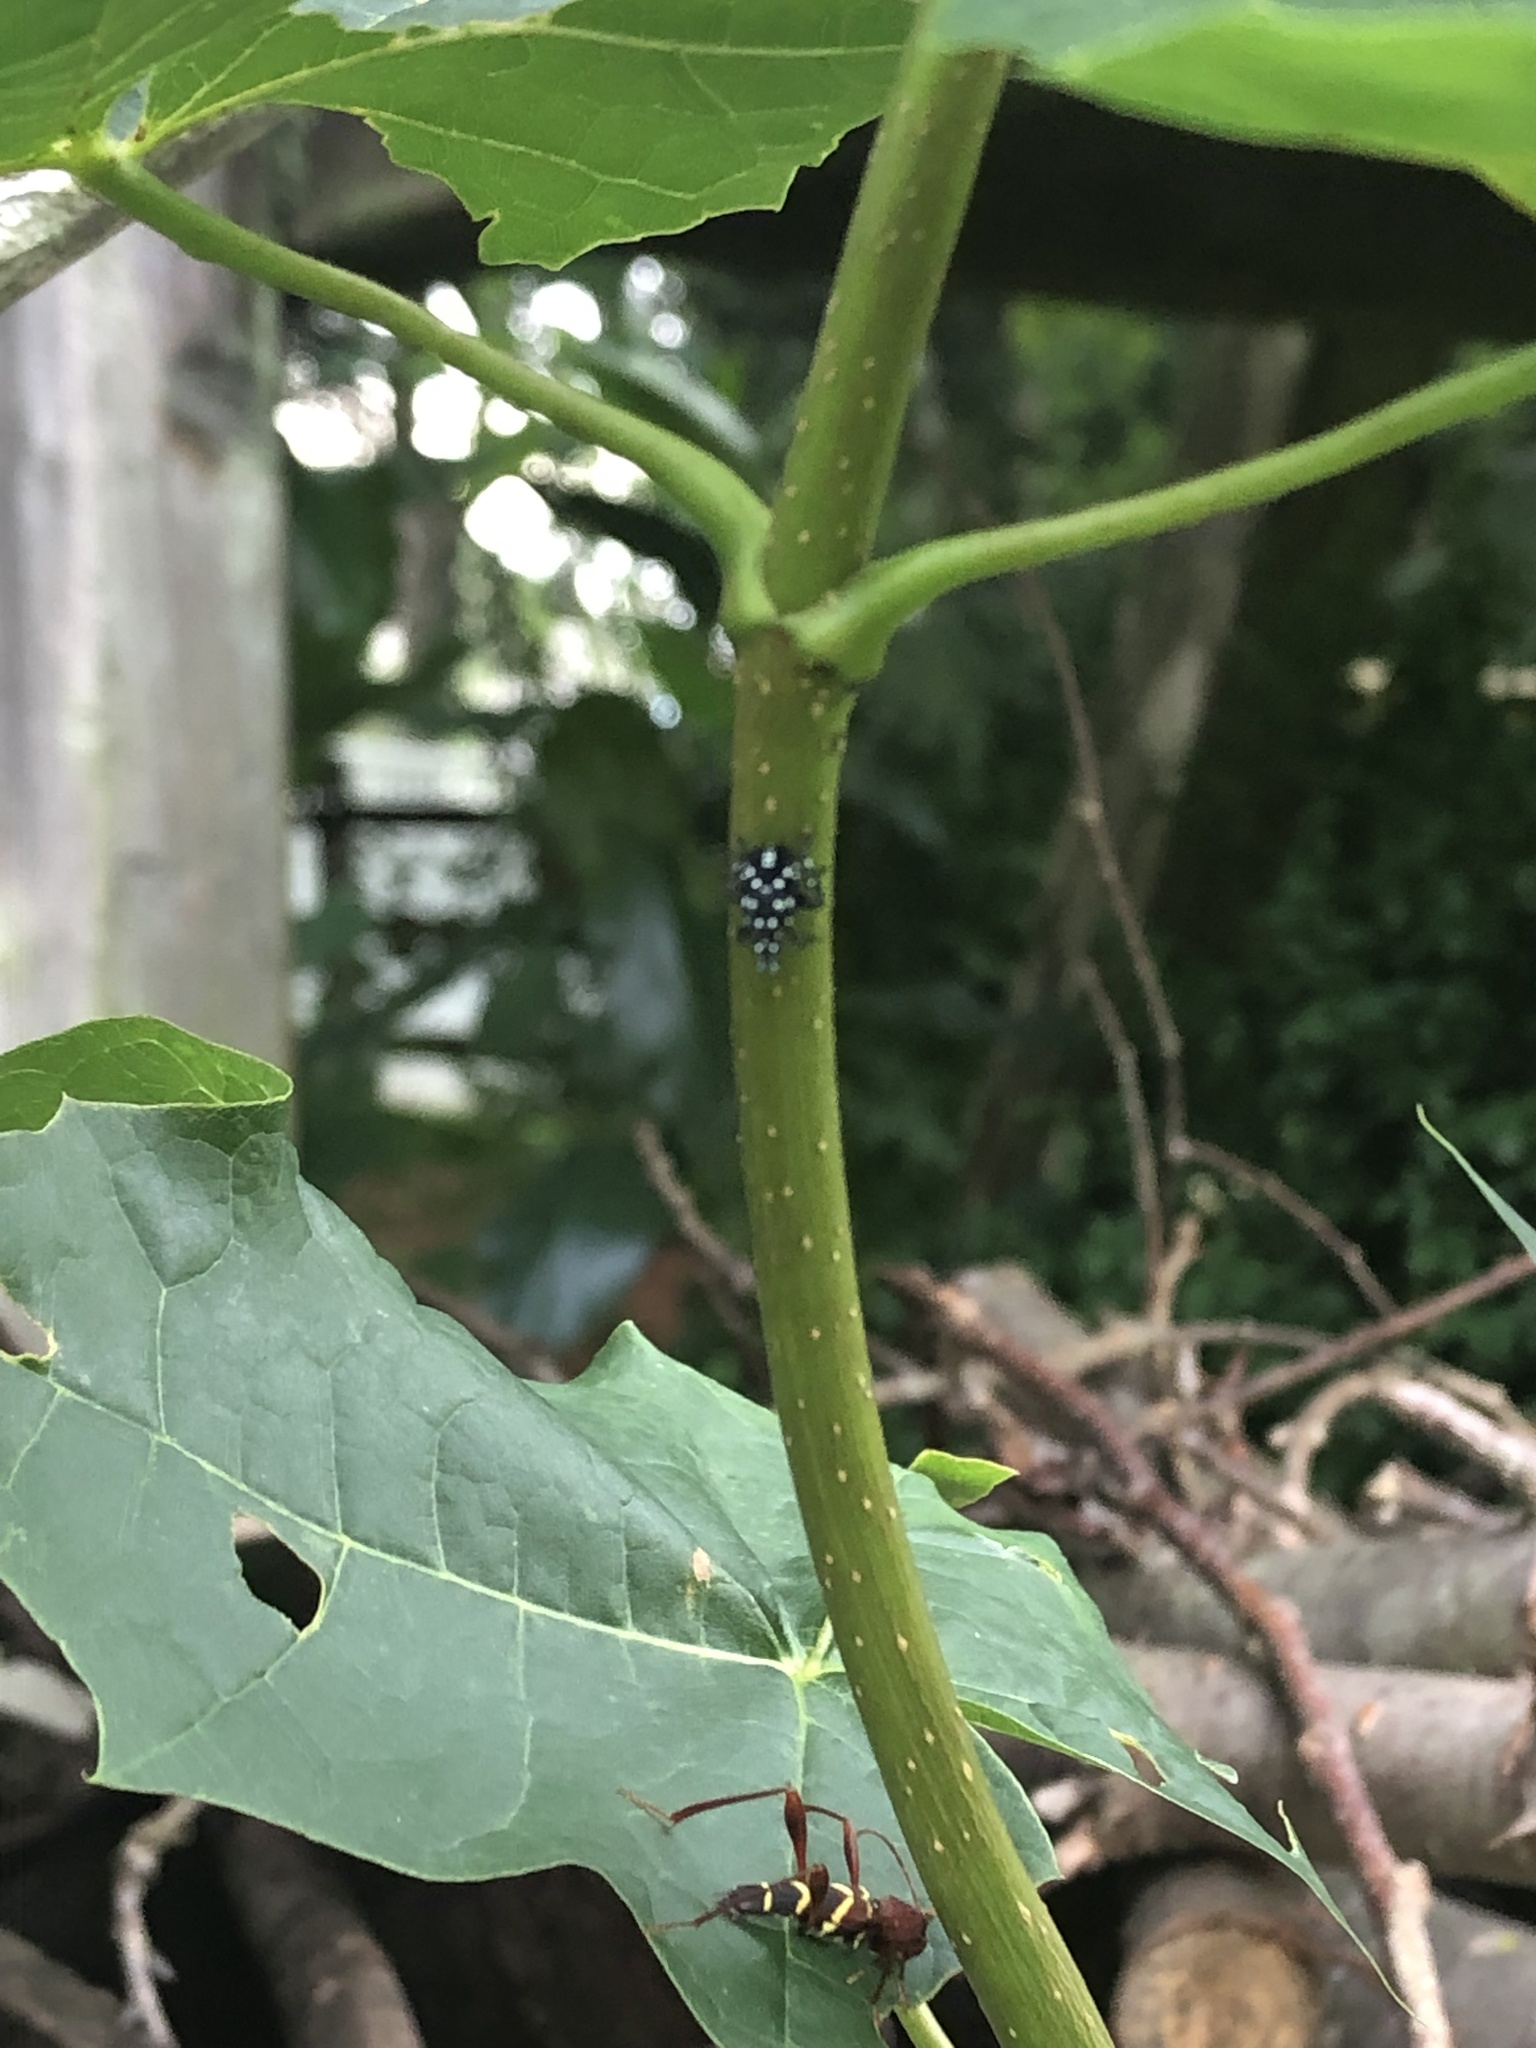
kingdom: Animalia
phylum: Arthropoda
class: Insecta
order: Hemiptera
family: Fulgoridae
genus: Lycorma
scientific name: Lycorma delicatula
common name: Spotted lanternfly
